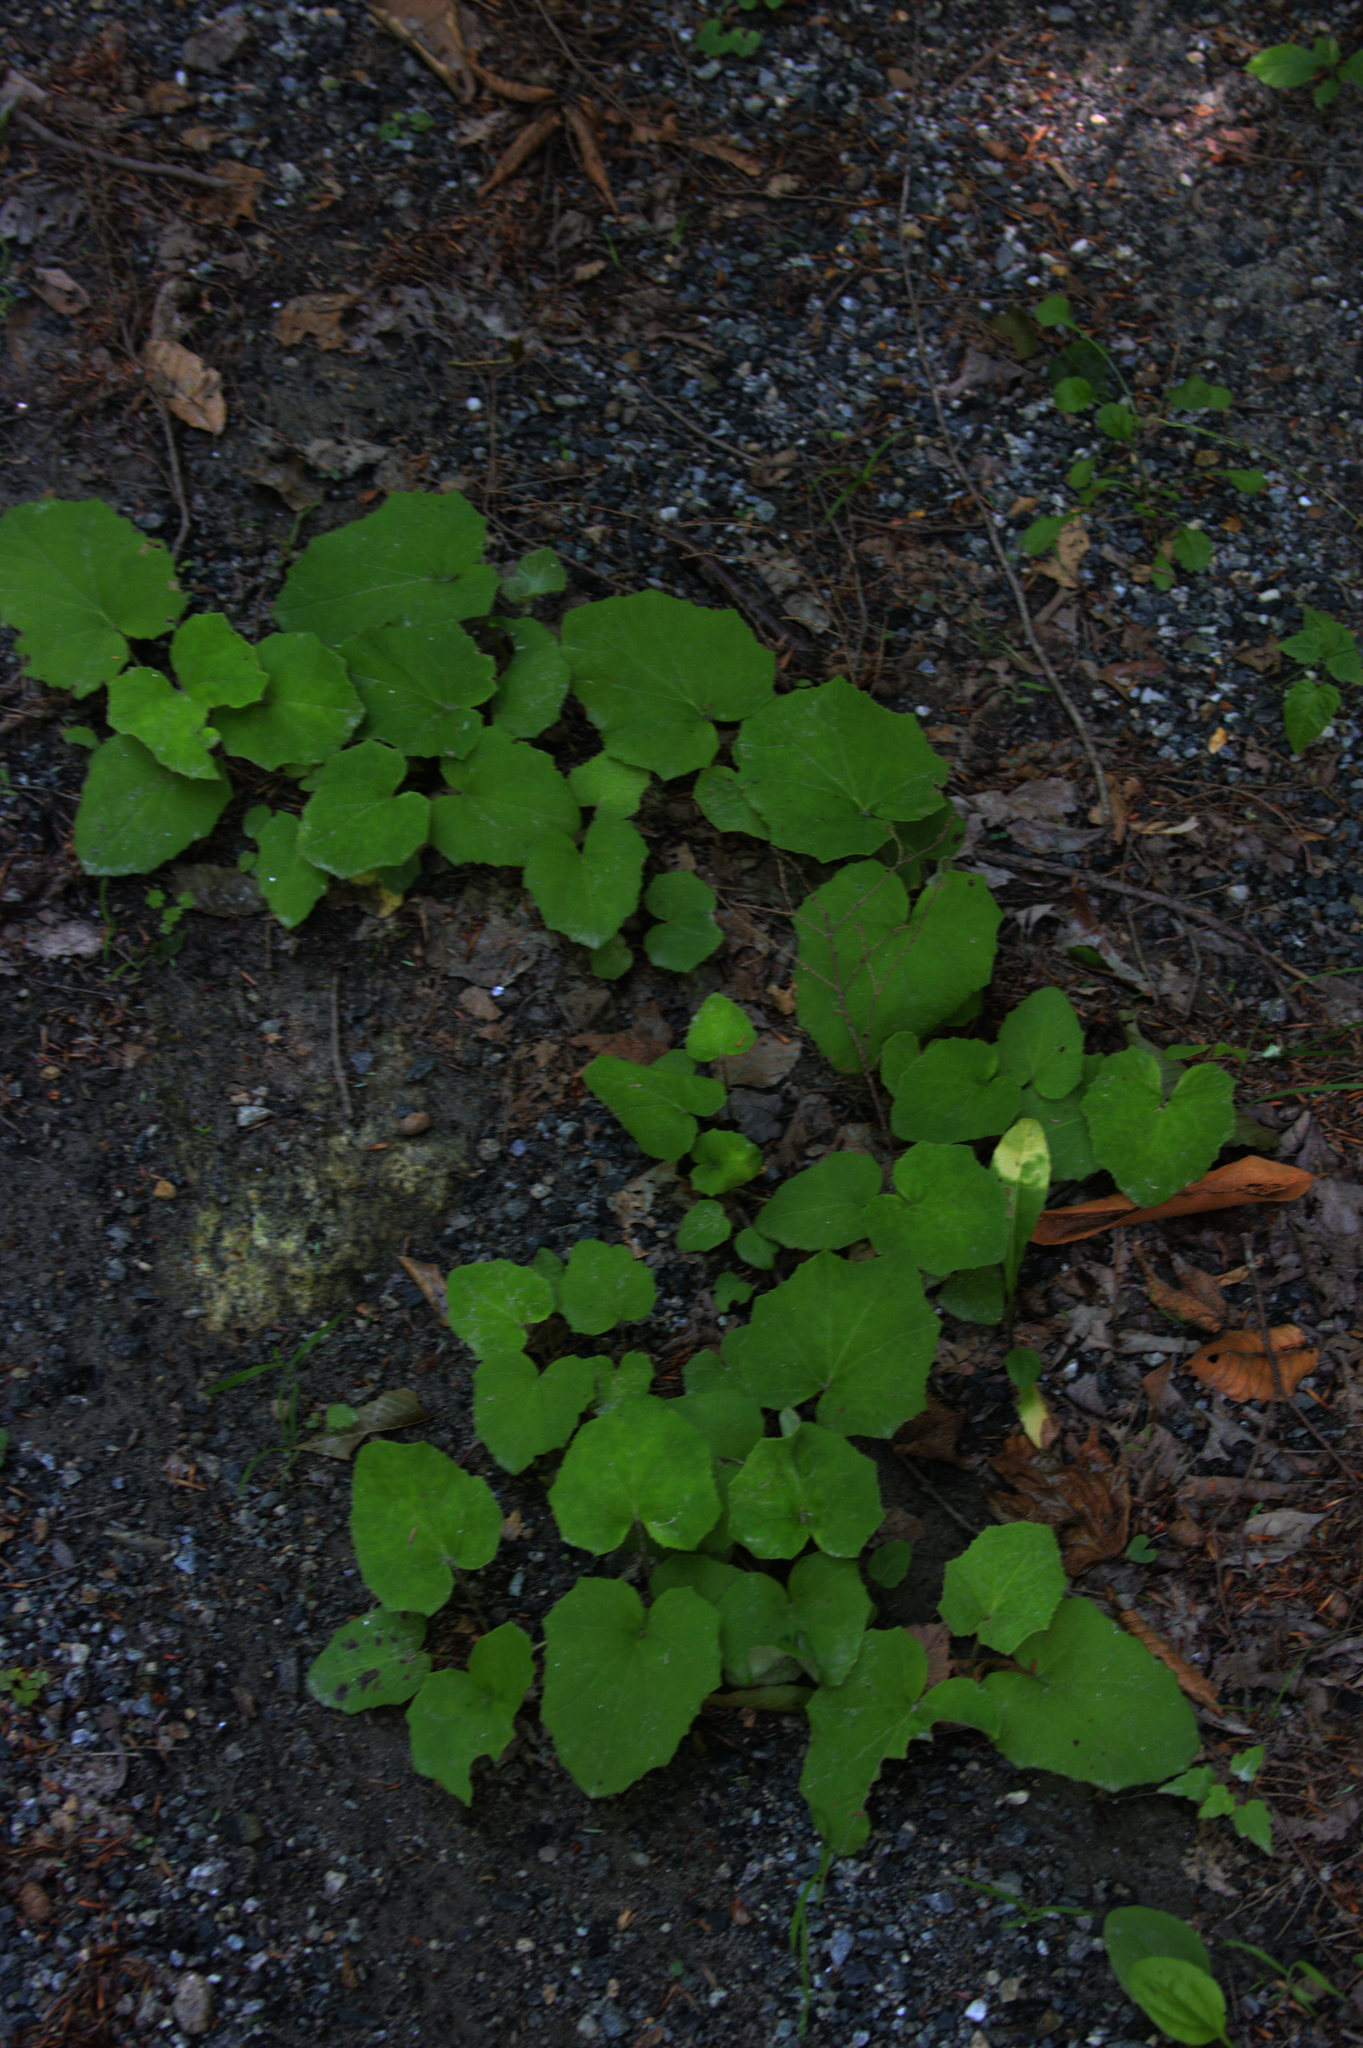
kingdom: Plantae
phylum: Tracheophyta
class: Magnoliopsida
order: Asterales
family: Asteraceae
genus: Tussilago
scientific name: Tussilago farfara
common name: Coltsfoot
